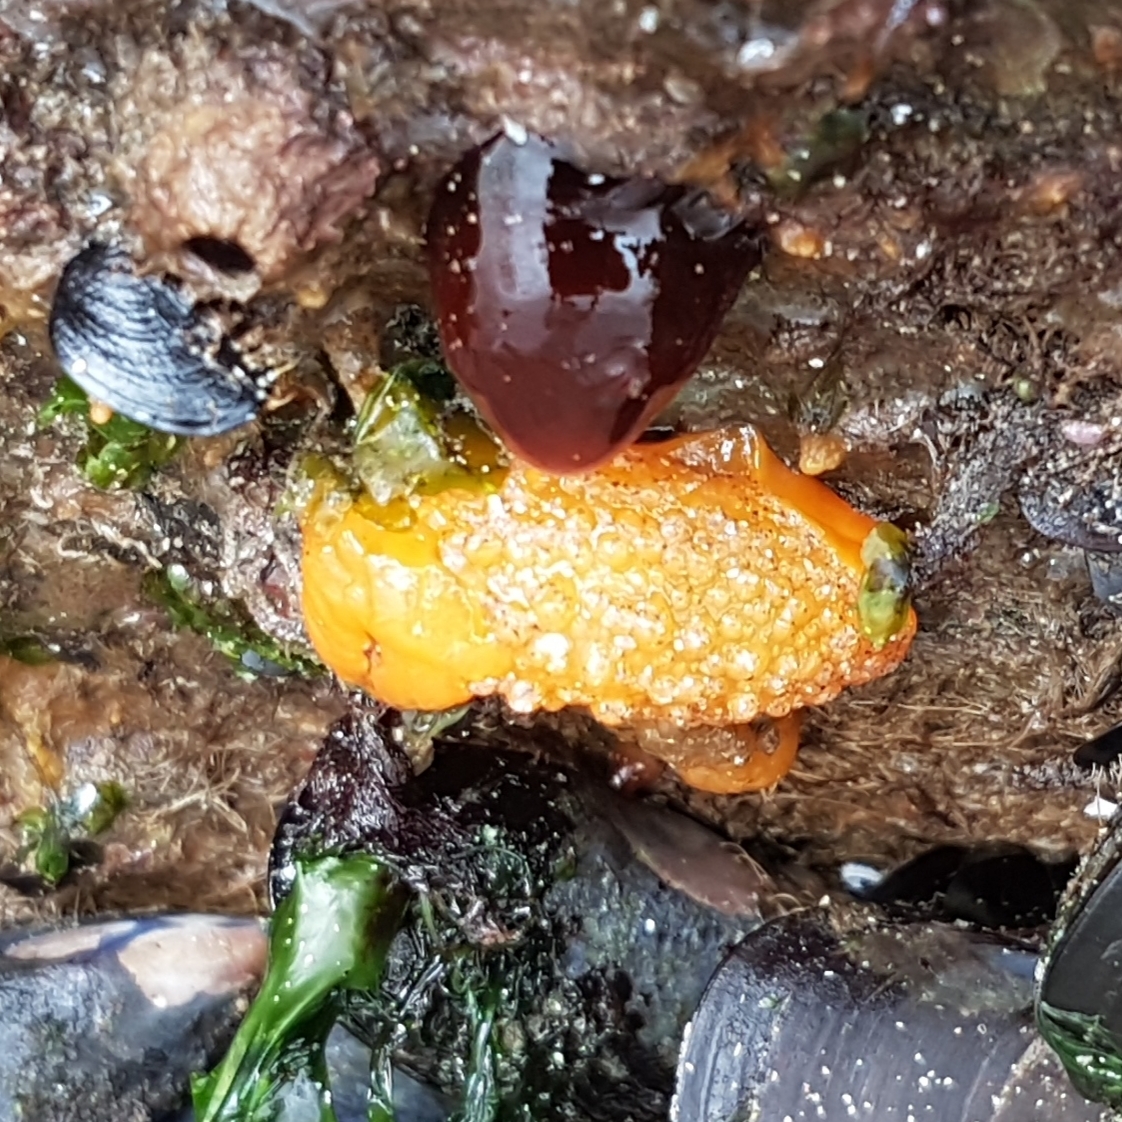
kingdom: Animalia
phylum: Mollusca
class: Gastropoda
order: Nudibranchia
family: Dorididae
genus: Doris
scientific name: Doris verrucosa
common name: Sponge seaslug
